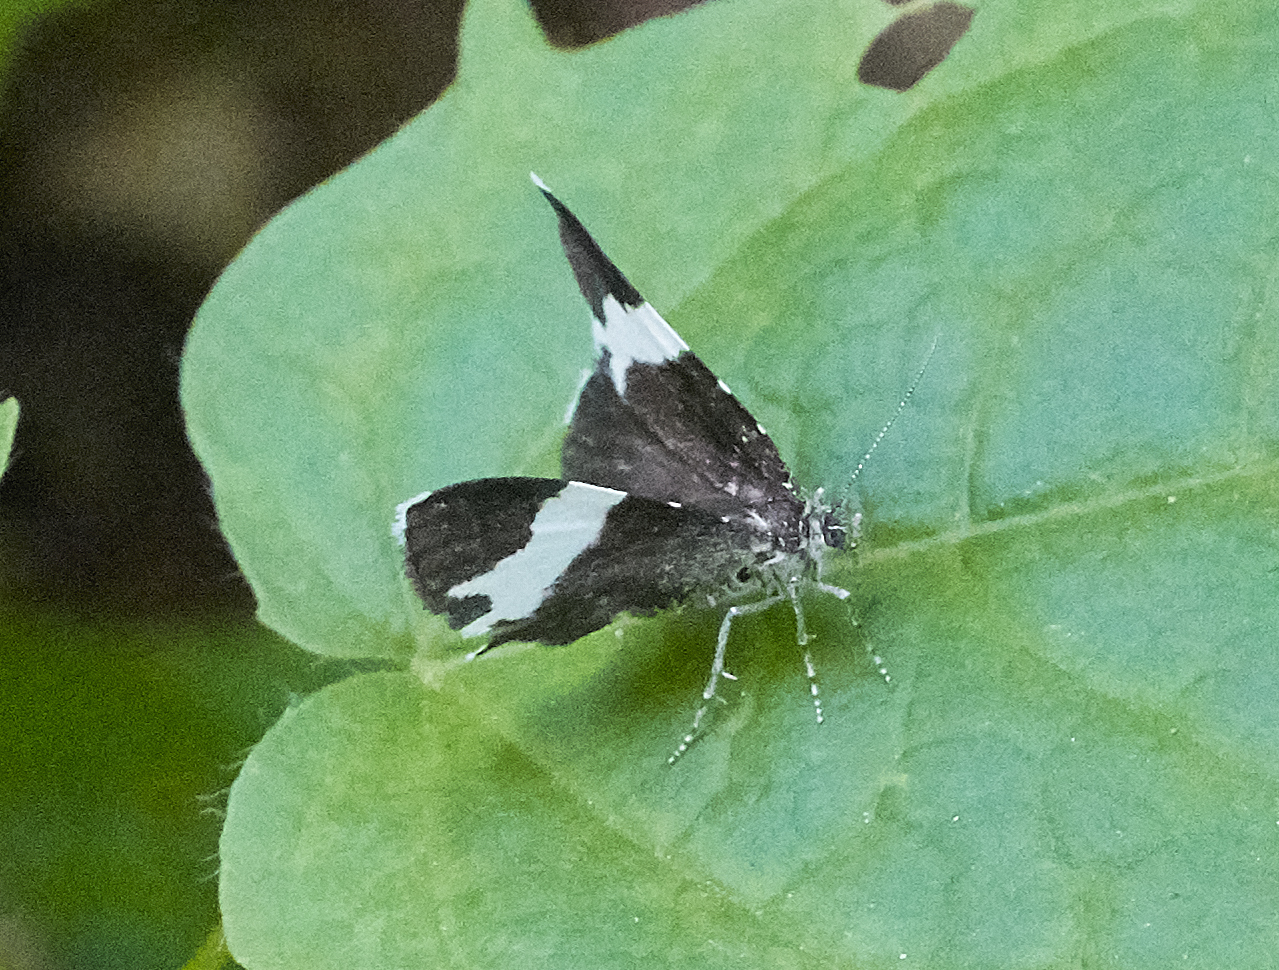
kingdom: Animalia
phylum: Arthropoda
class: Insecta
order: Lepidoptera
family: Geometridae
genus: Trichodezia
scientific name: Trichodezia albovittata
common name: White striped black
